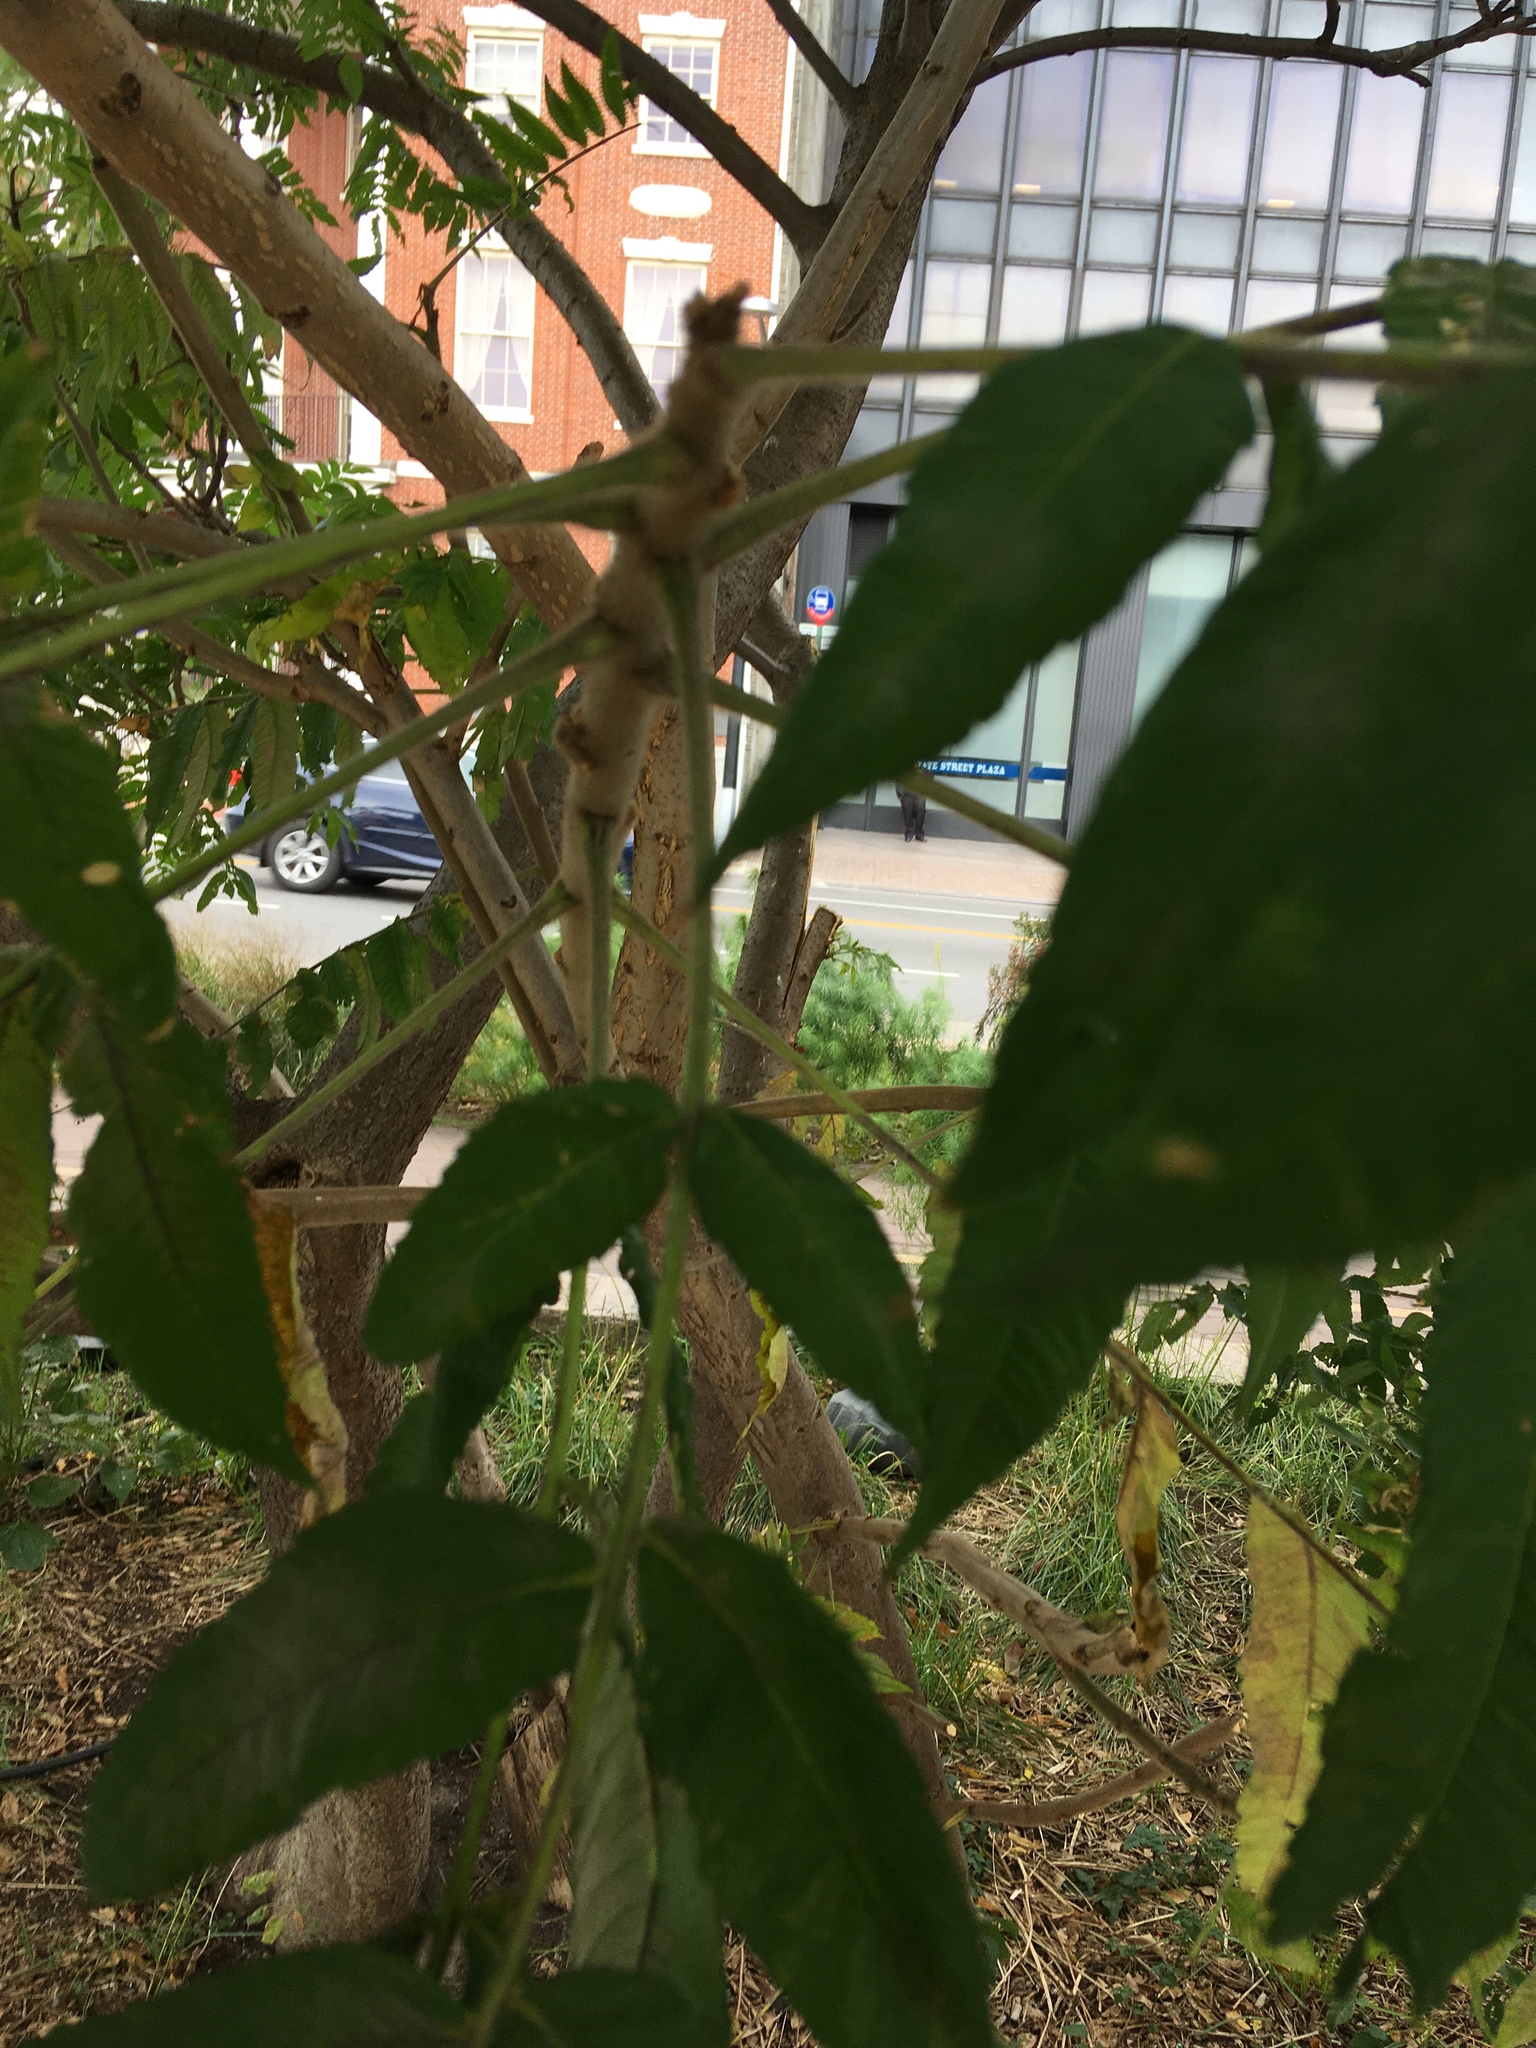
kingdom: Plantae
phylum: Tracheophyta
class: Magnoliopsida
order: Sapindales
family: Anacardiaceae
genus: Rhus
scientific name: Rhus typhina
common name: Staghorn sumac
